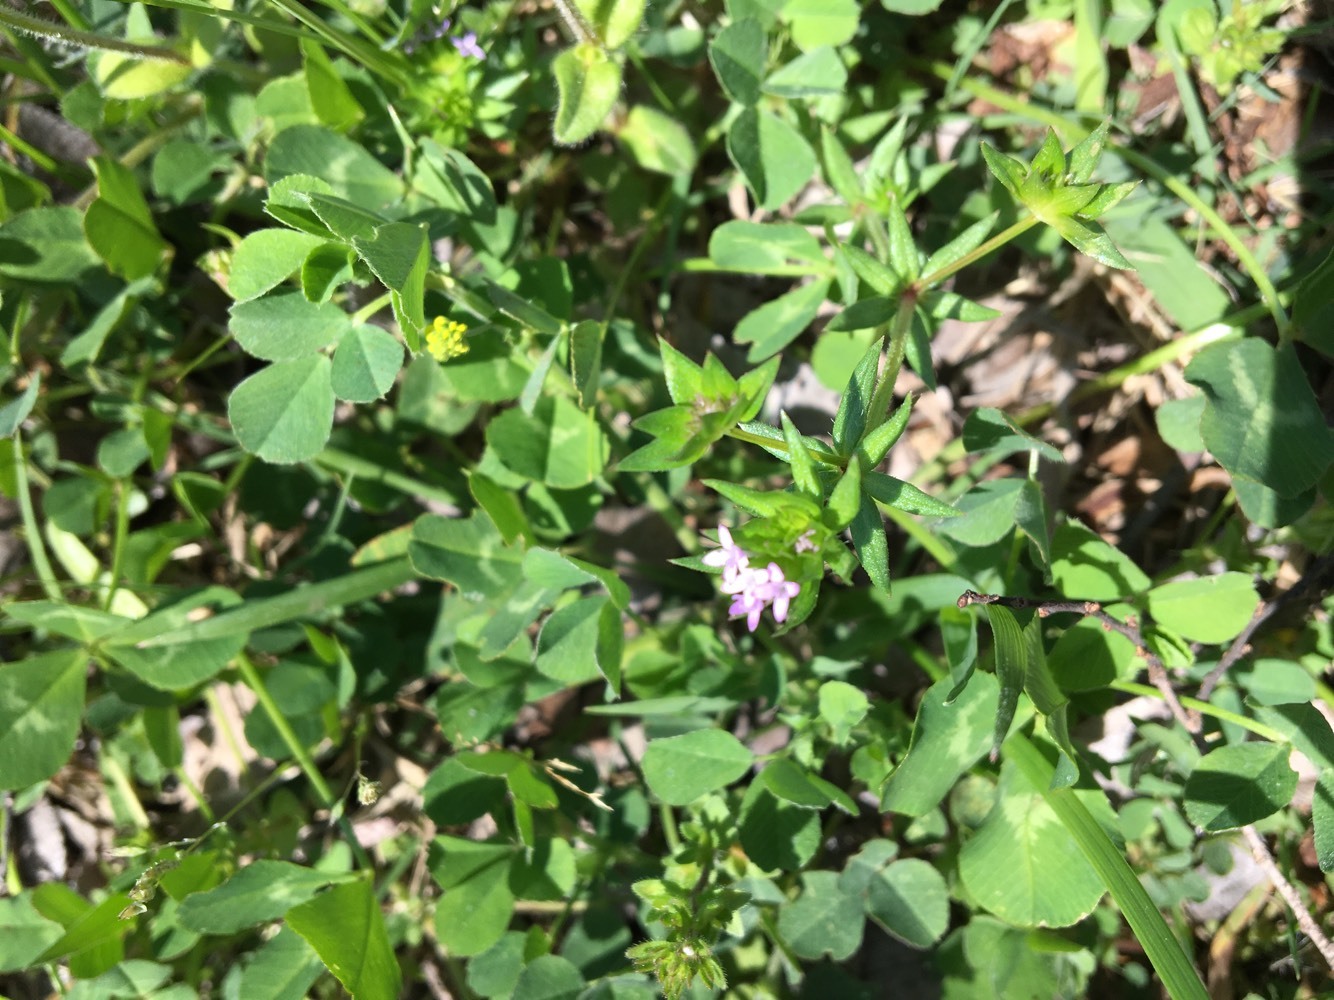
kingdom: Plantae
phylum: Tracheophyta
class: Magnoliopsida
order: Gentianales
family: Rubiaceae
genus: Sherardia
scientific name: Sherardia arvensis
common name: Field madder
